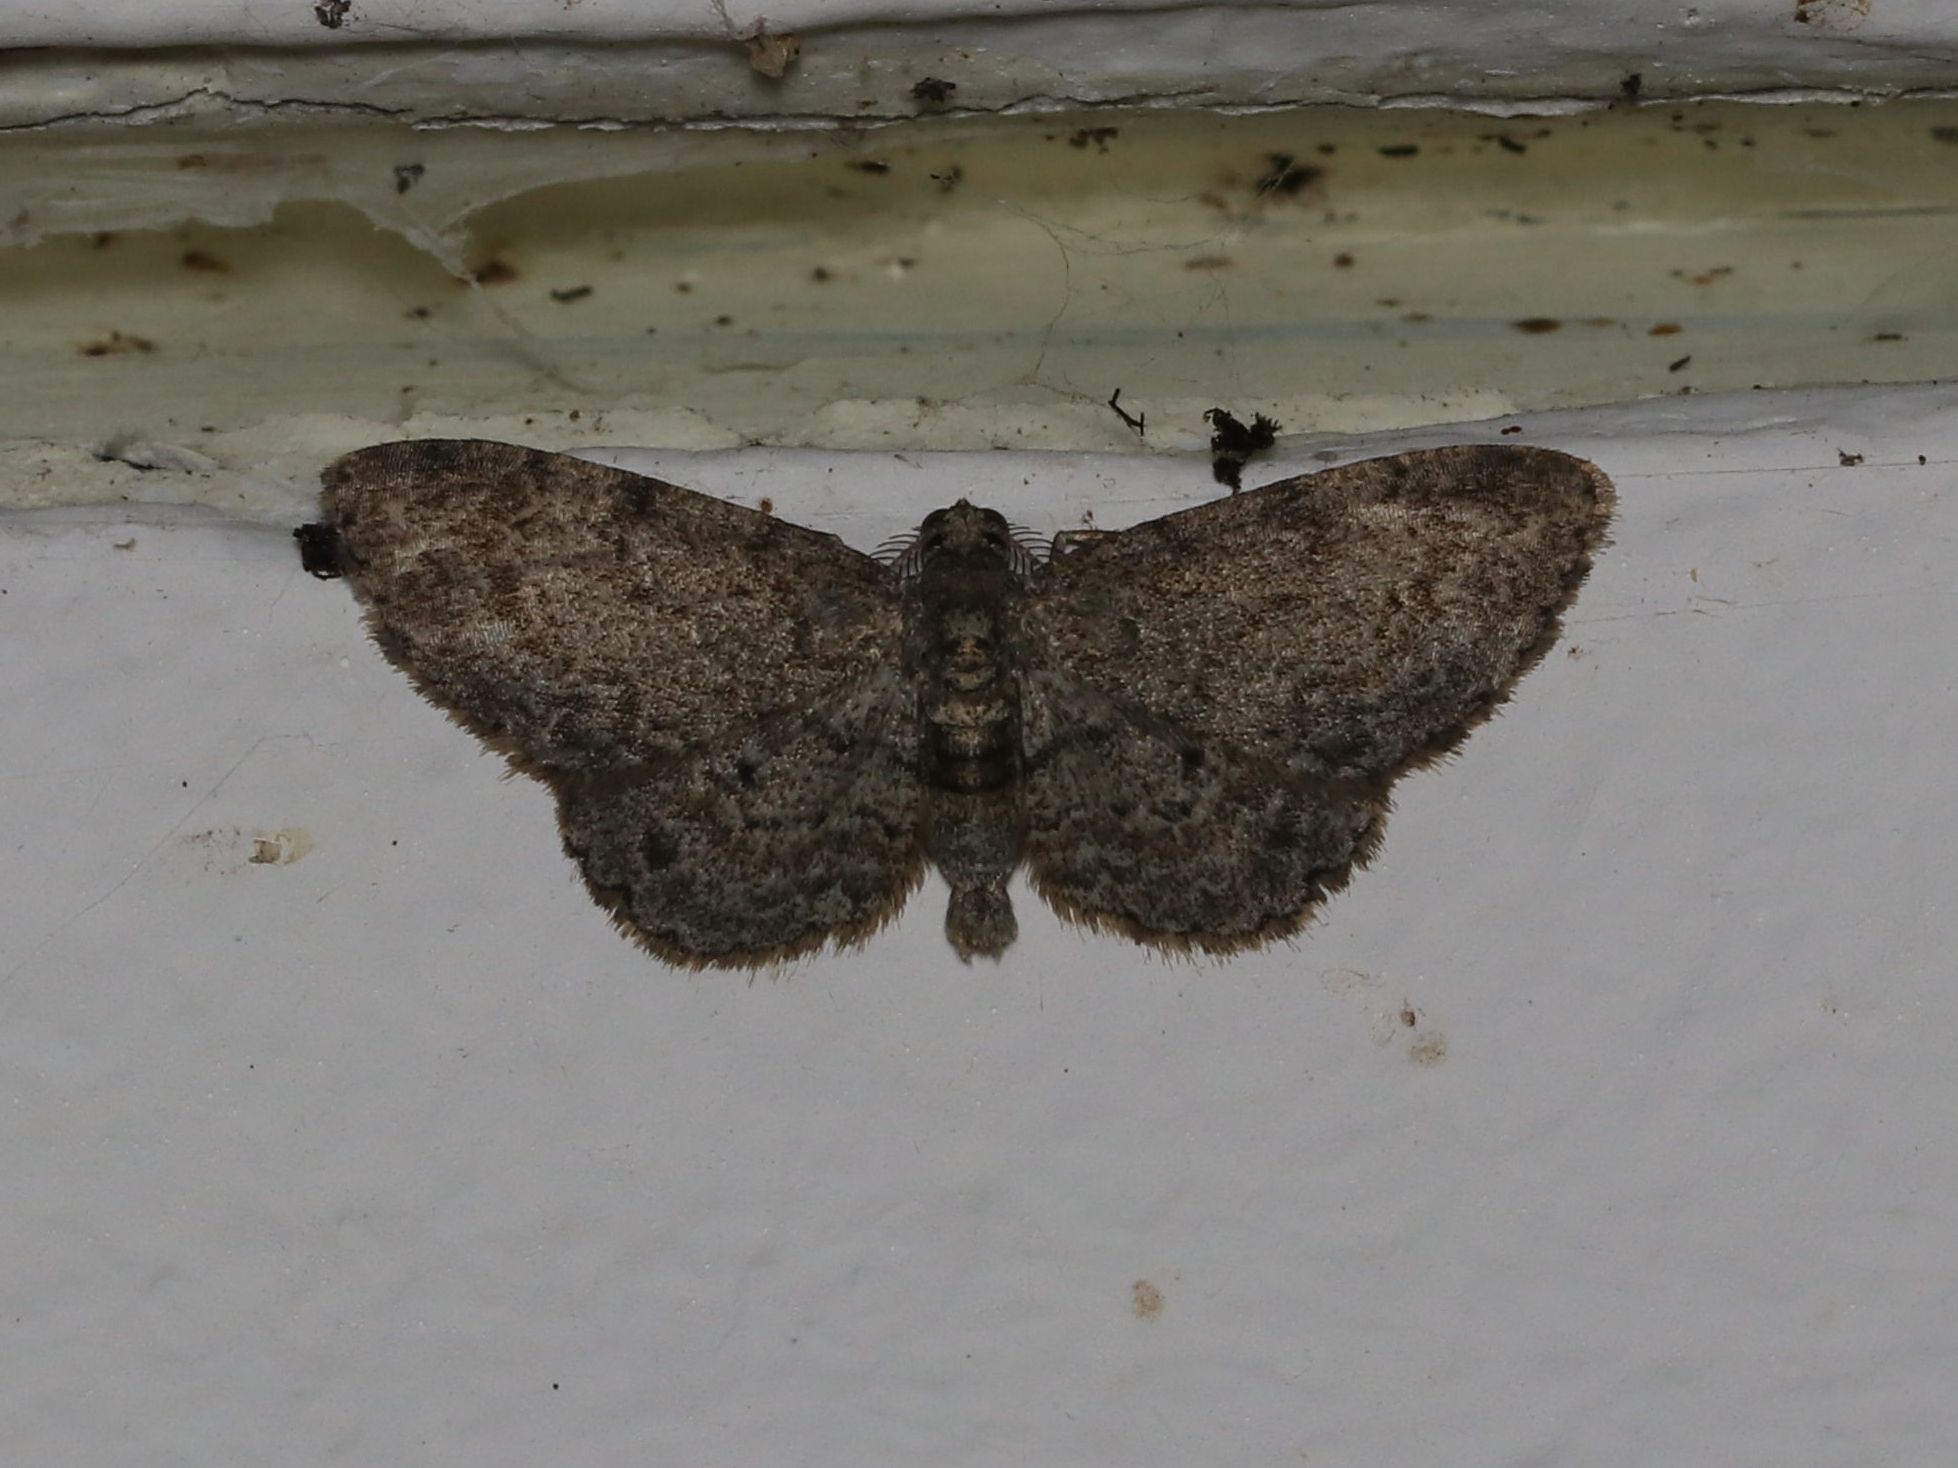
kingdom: Animalia
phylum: Arthropoda
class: Insecta
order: Lepidoptera
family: Geometridae
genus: Glenoides
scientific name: Glenoides texanaria
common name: Texas gray
